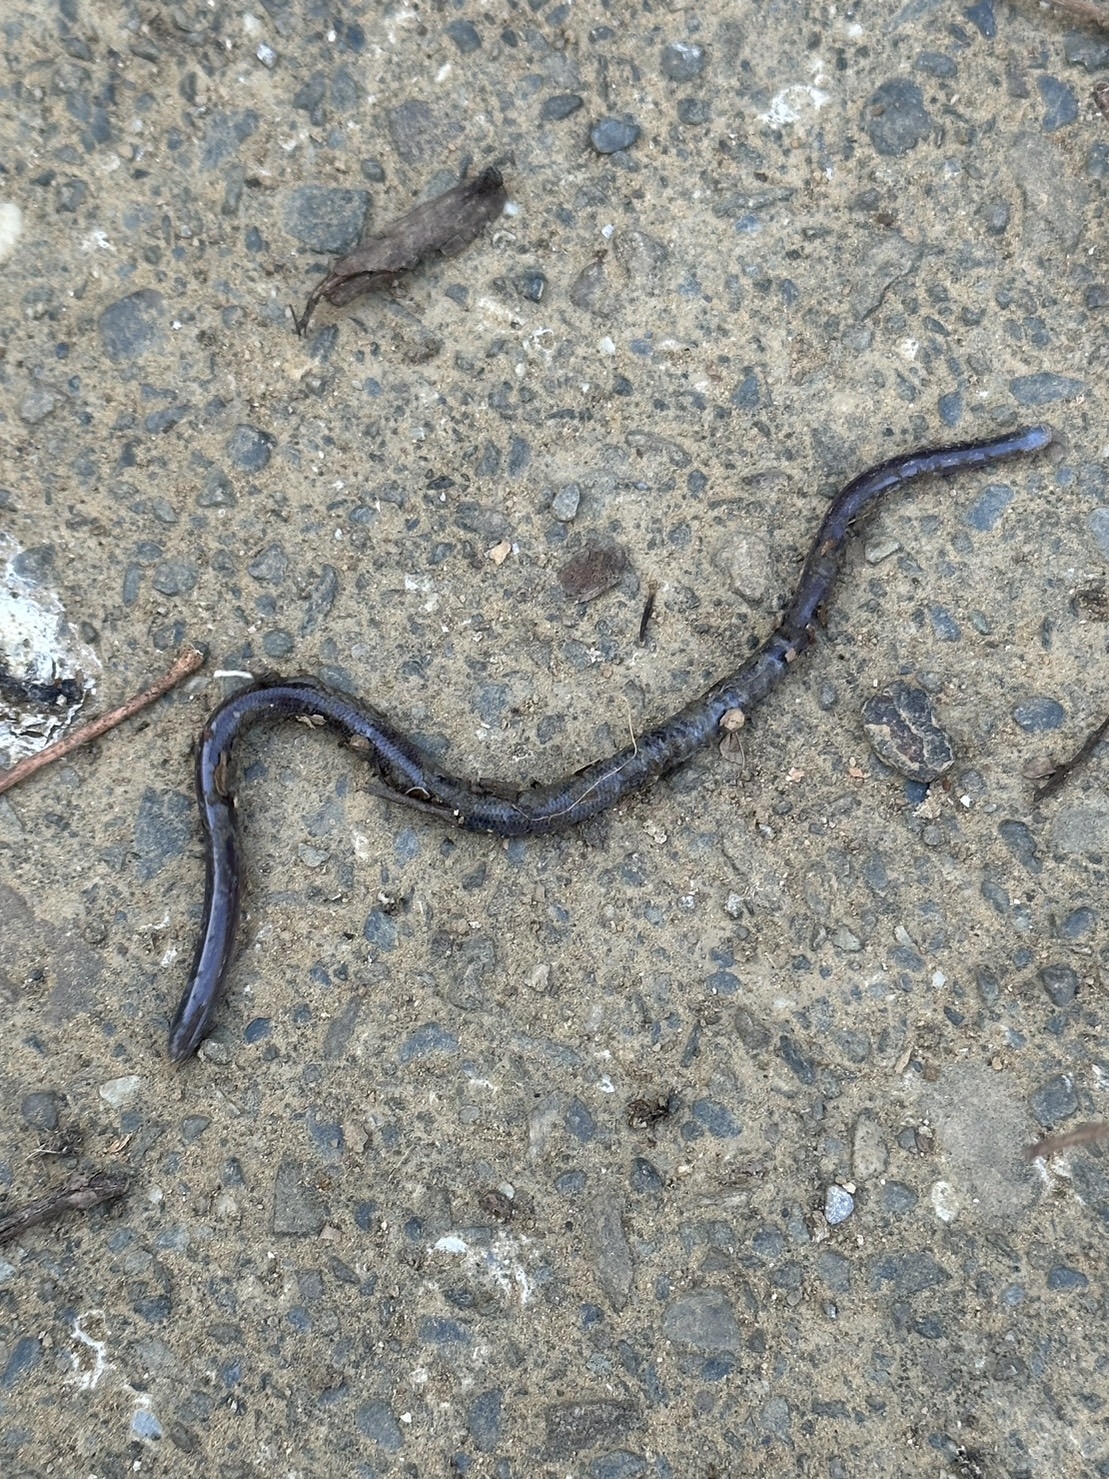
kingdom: Animalia
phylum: Chordata
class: Squamata
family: Typhlopidae
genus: Indotyphlops
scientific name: Indotyphlops braminus
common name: Brahminy blindsnake
